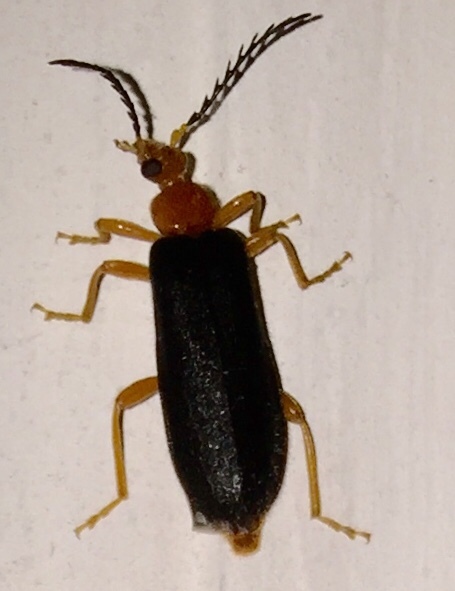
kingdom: Animalia
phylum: Arthropoda
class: Insecta
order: Coleoptera
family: Pyrochroidae
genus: Neopyrochroa
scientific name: Neopyrochroa flabellata
